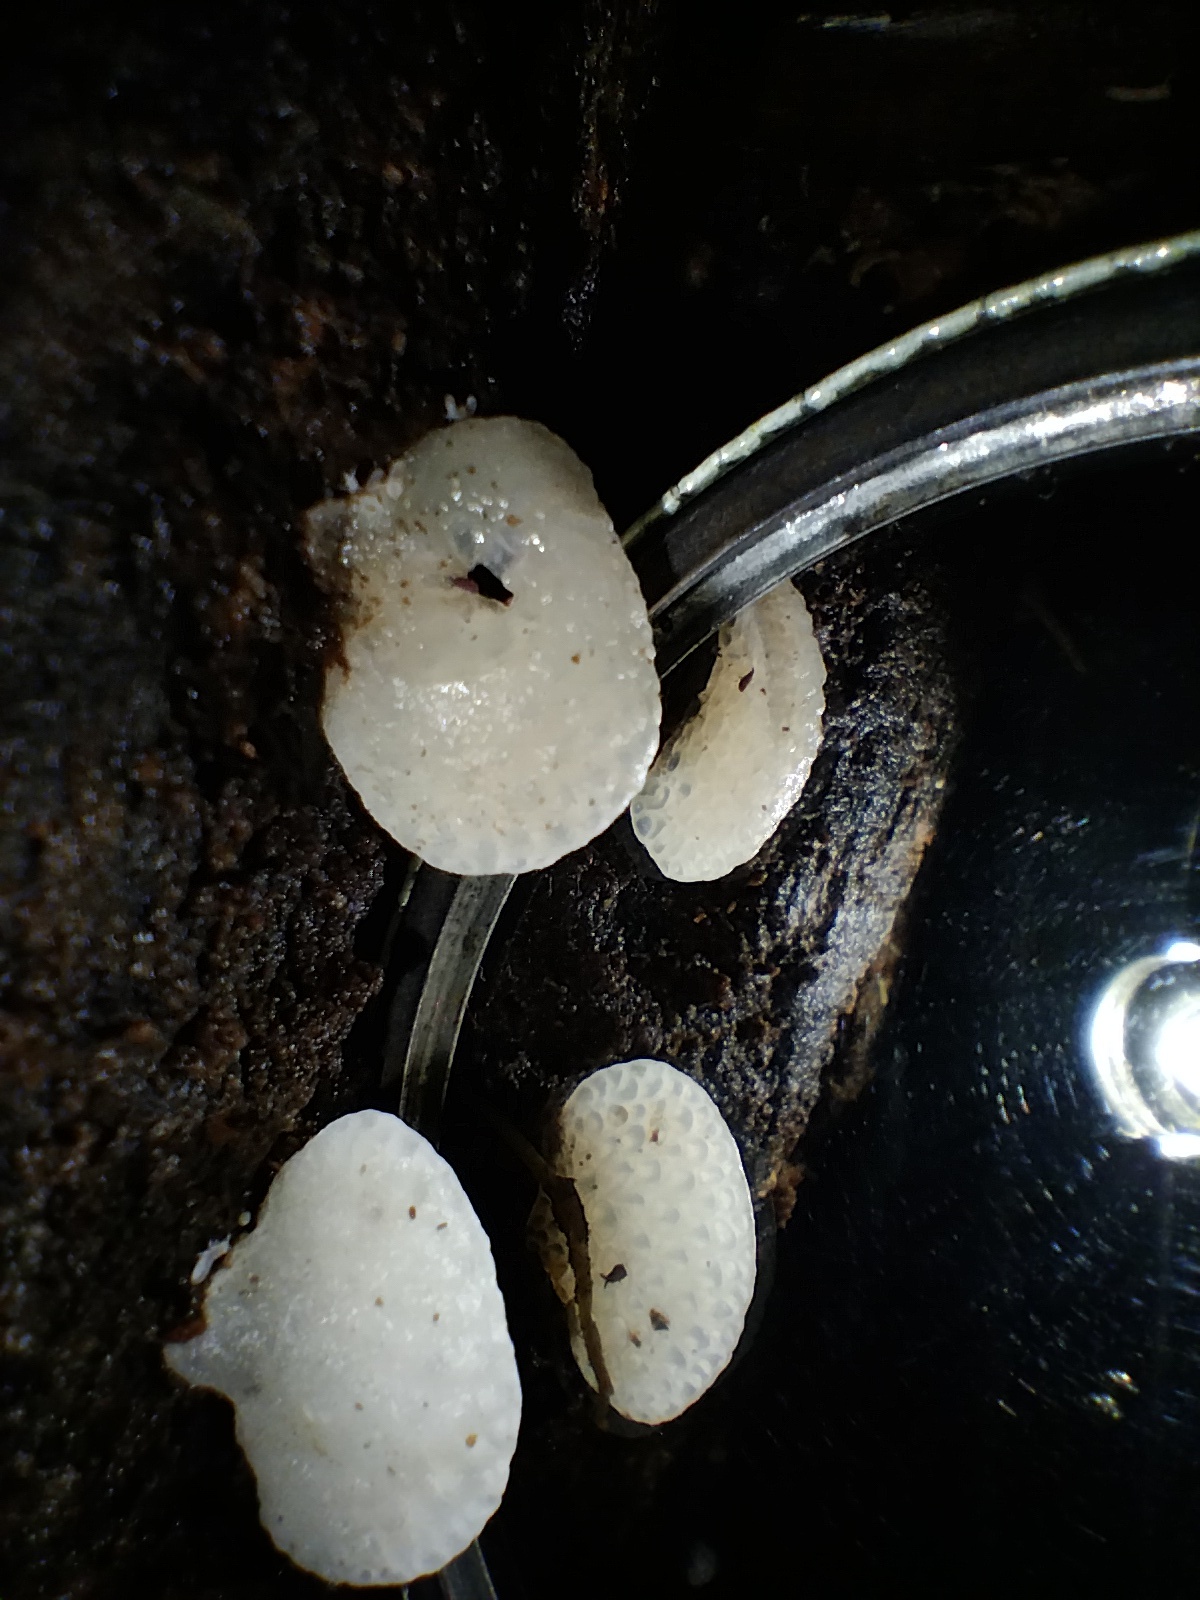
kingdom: Fungi
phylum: Basidiomycota
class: Agaricomycetes
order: Agaricales
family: Mycenaceae
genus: Favolaschia
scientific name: Favolaschia pustulosa
